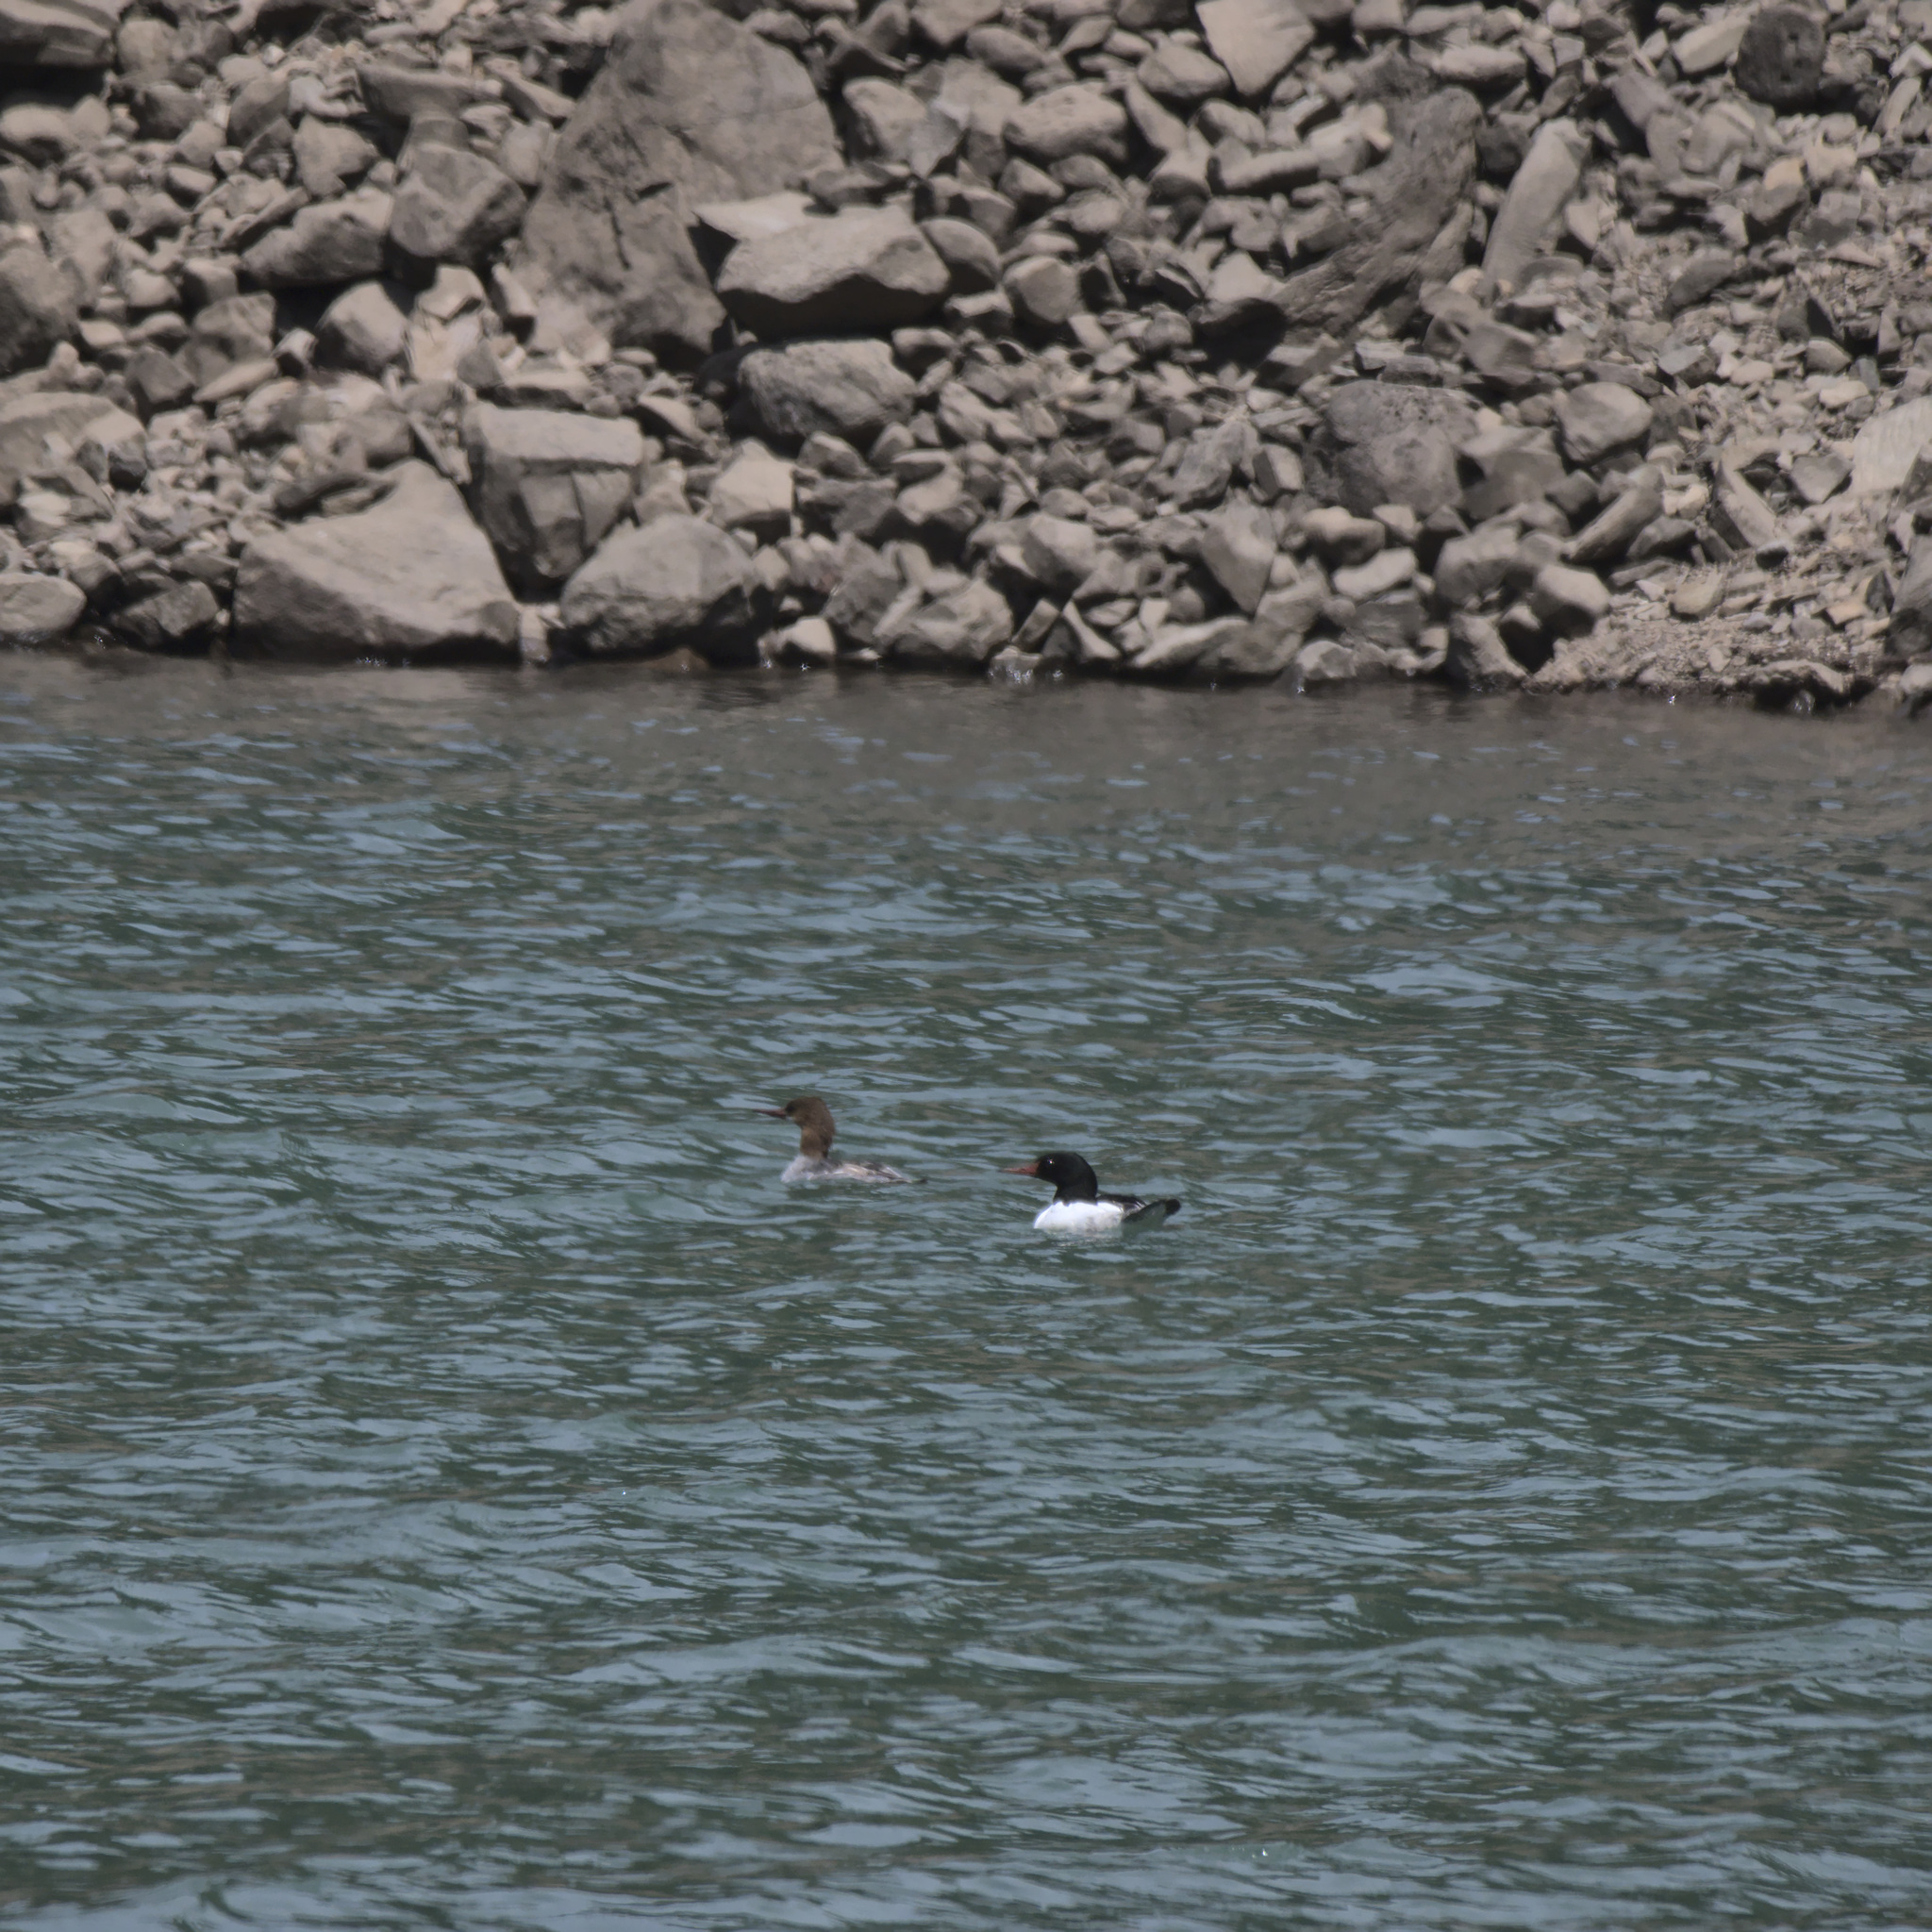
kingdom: Animalia
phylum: Chordata
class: Aves
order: Anseriformes
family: Anatidae
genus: Mergus
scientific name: Mergus merganser
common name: Common merganser
